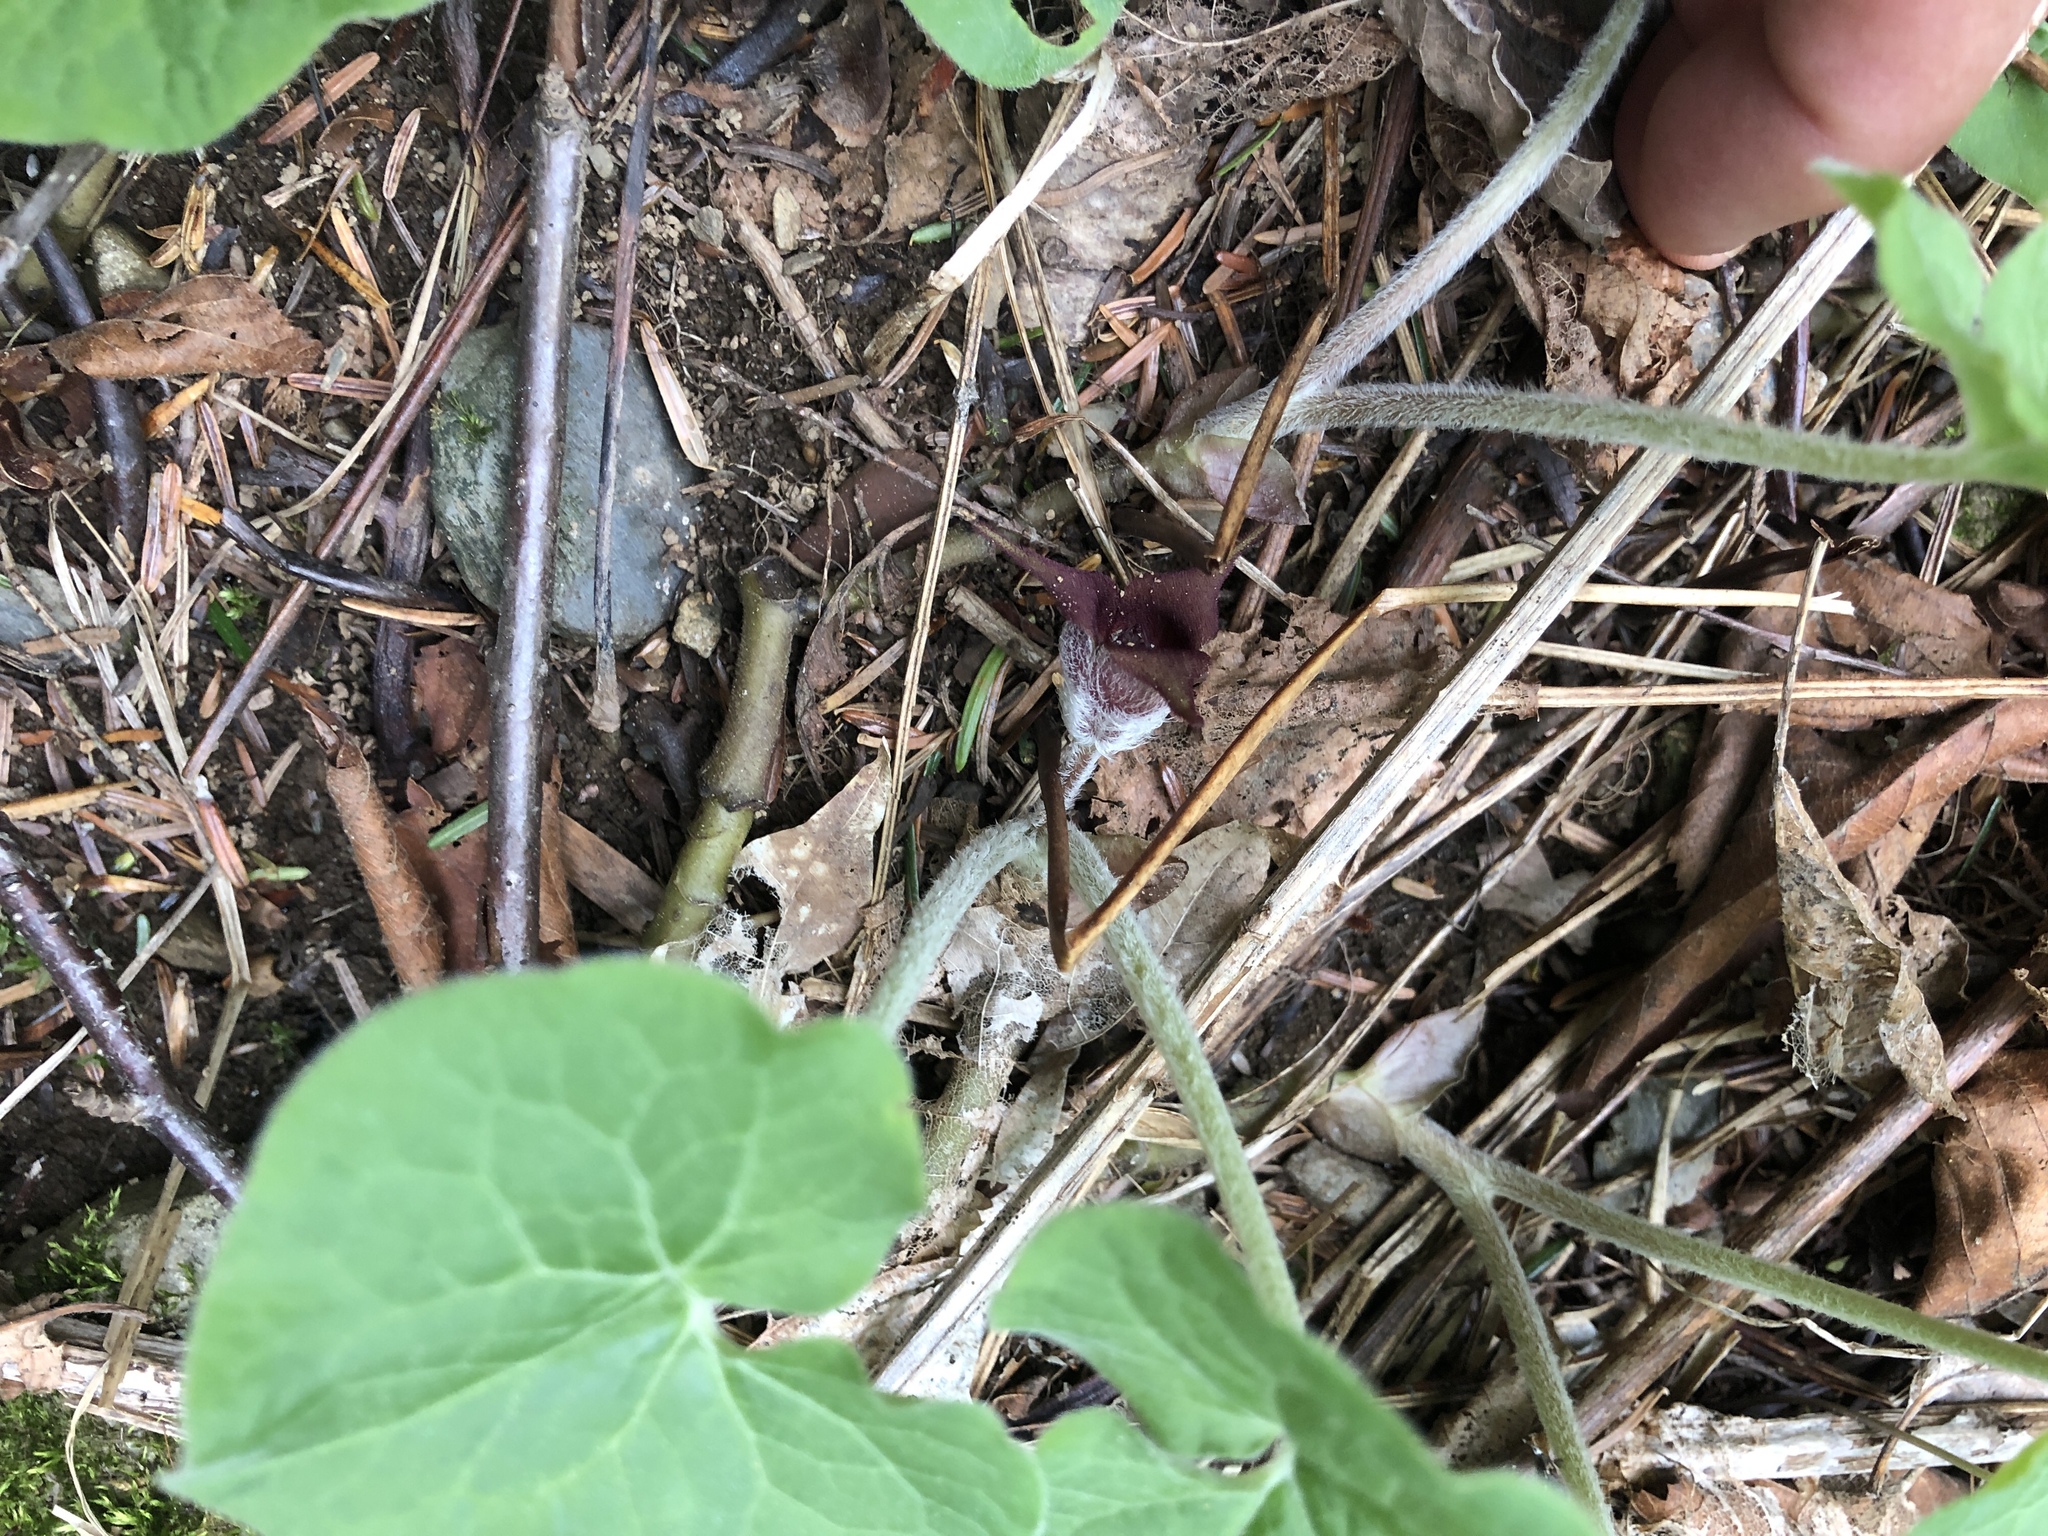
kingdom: Plantae
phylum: Tracheophyta
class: Magnoliopsida
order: Piperales
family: Aristolochiaceae
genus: Asarum
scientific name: Asarum canadense
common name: Wild ginger
